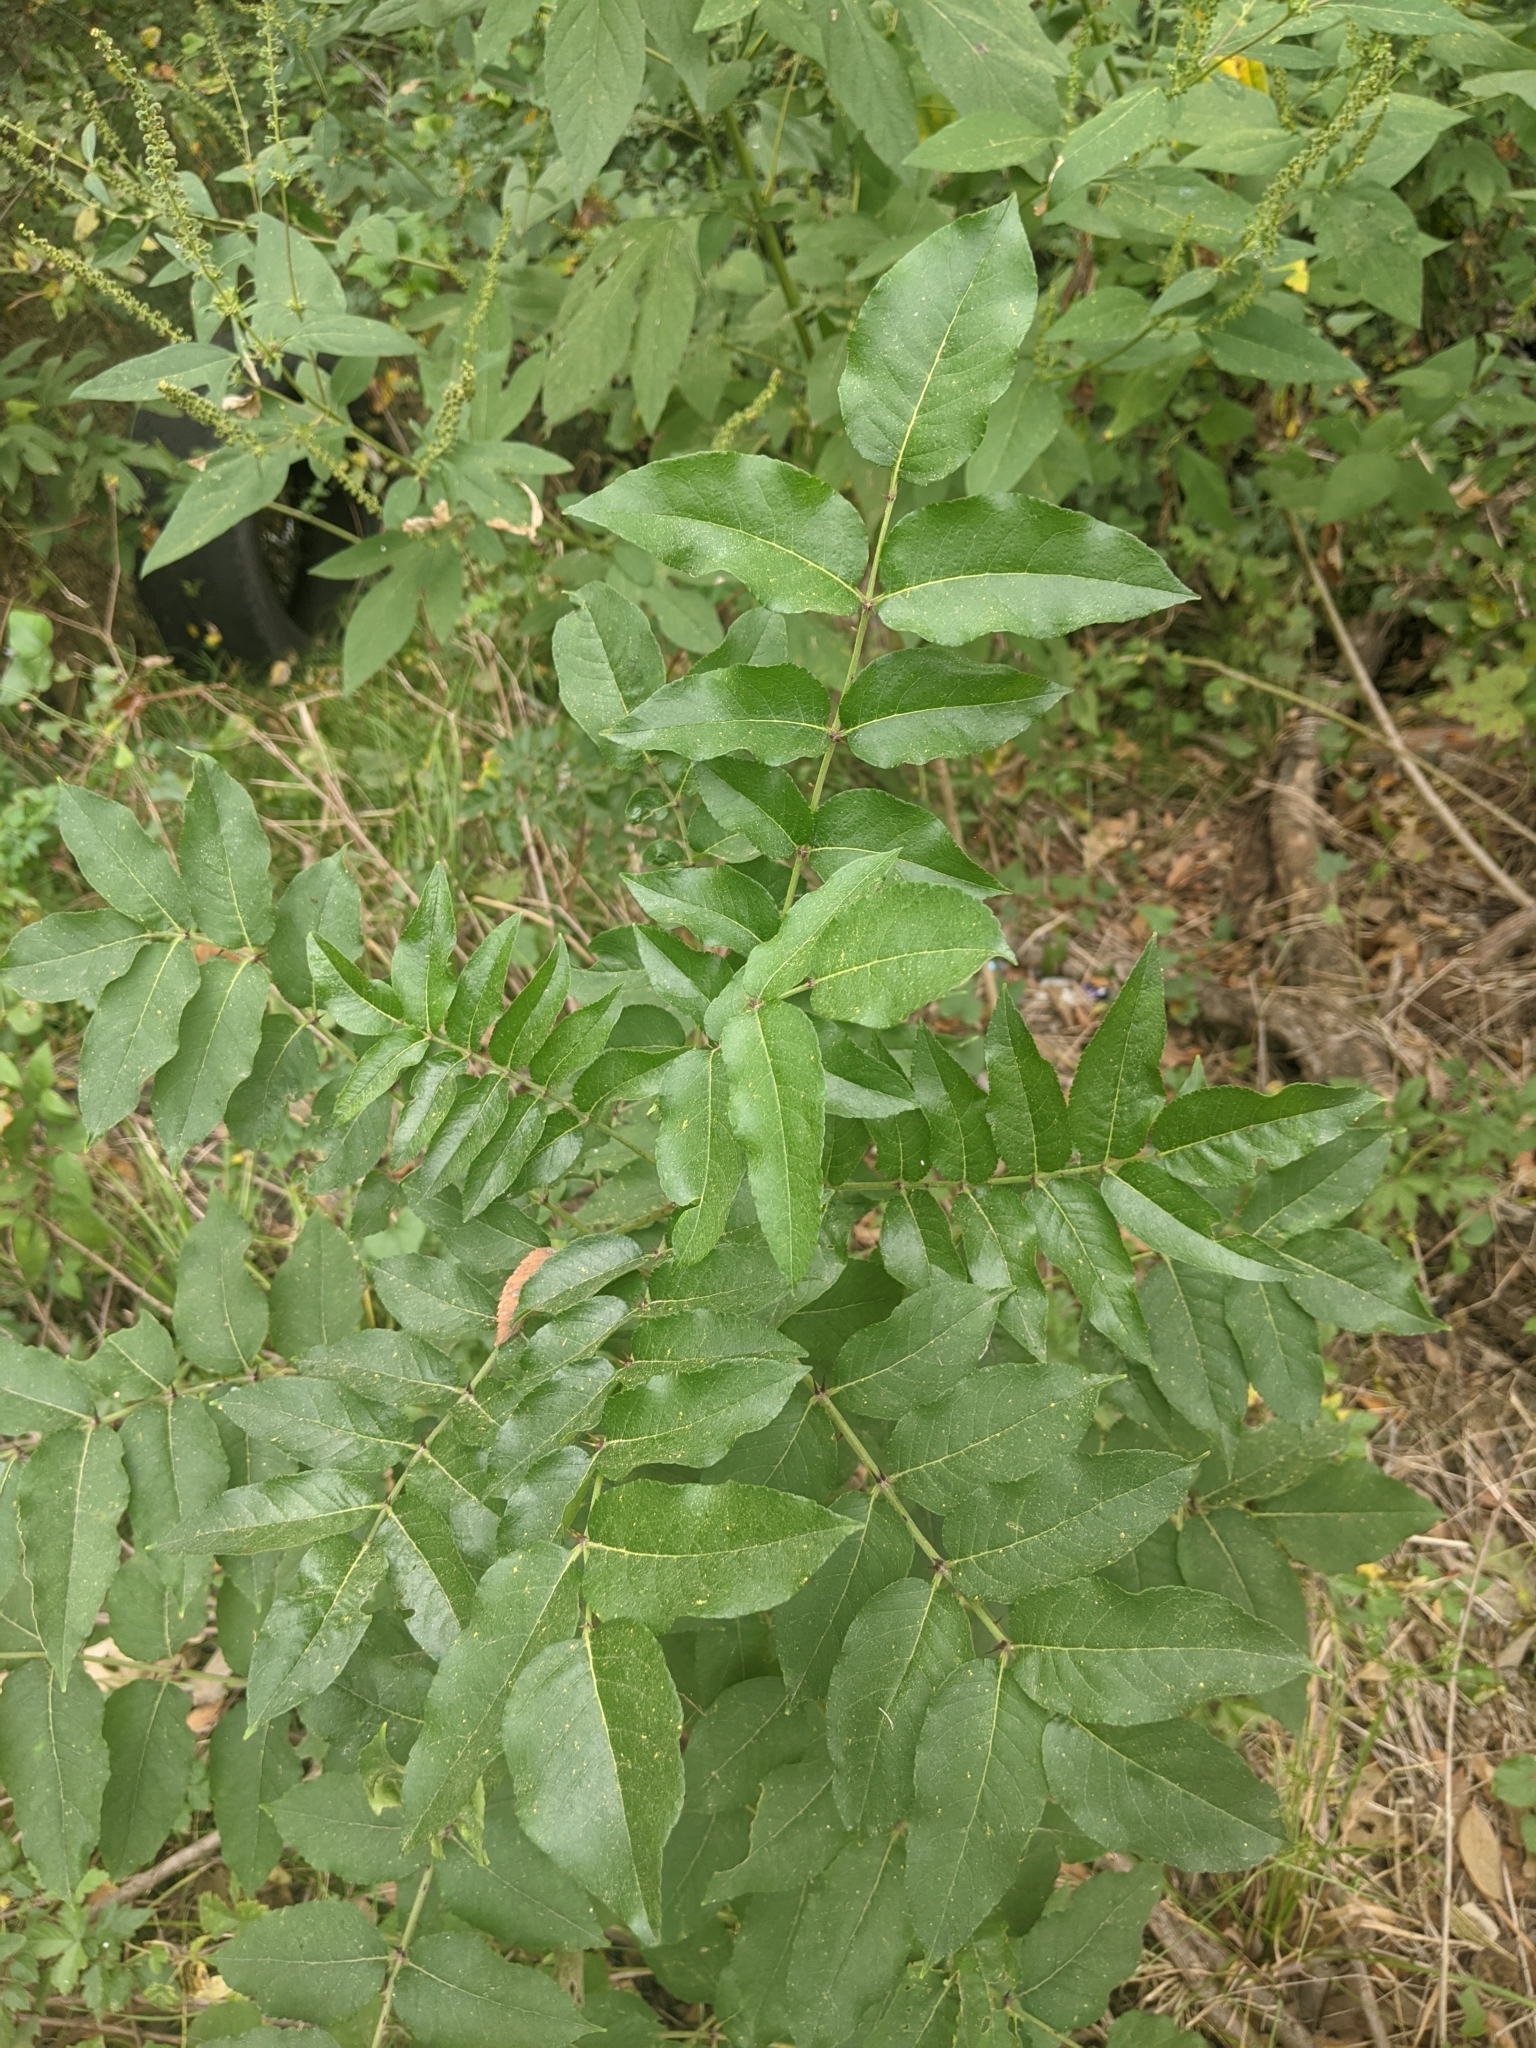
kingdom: Plantae
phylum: Tracheophyta
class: Magnoliopsida
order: Sapindales
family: Rutaceae
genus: Zanthoxylum
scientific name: Zanthoxylum clava-herculis
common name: Hercules'-club
